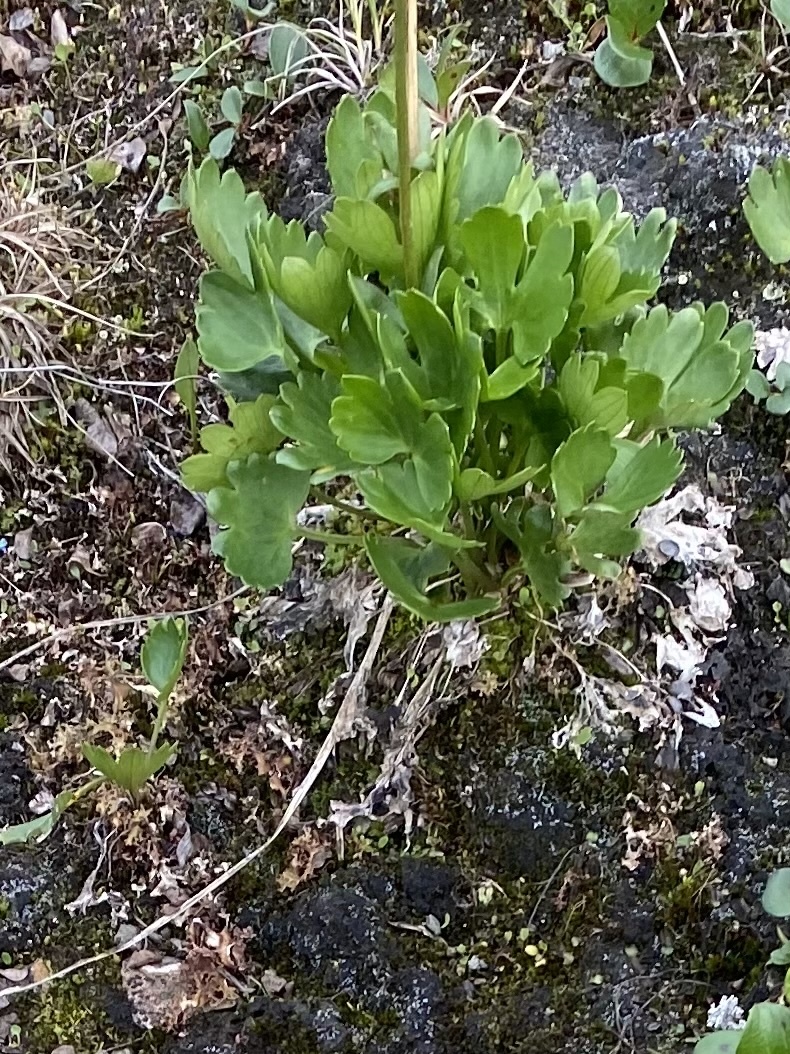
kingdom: Plantae
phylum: Tracheophyta
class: Magnoliopsida
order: Ranunculales
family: Ranunculaceae
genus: Ranunculus
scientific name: Ranunculus sulphureus
